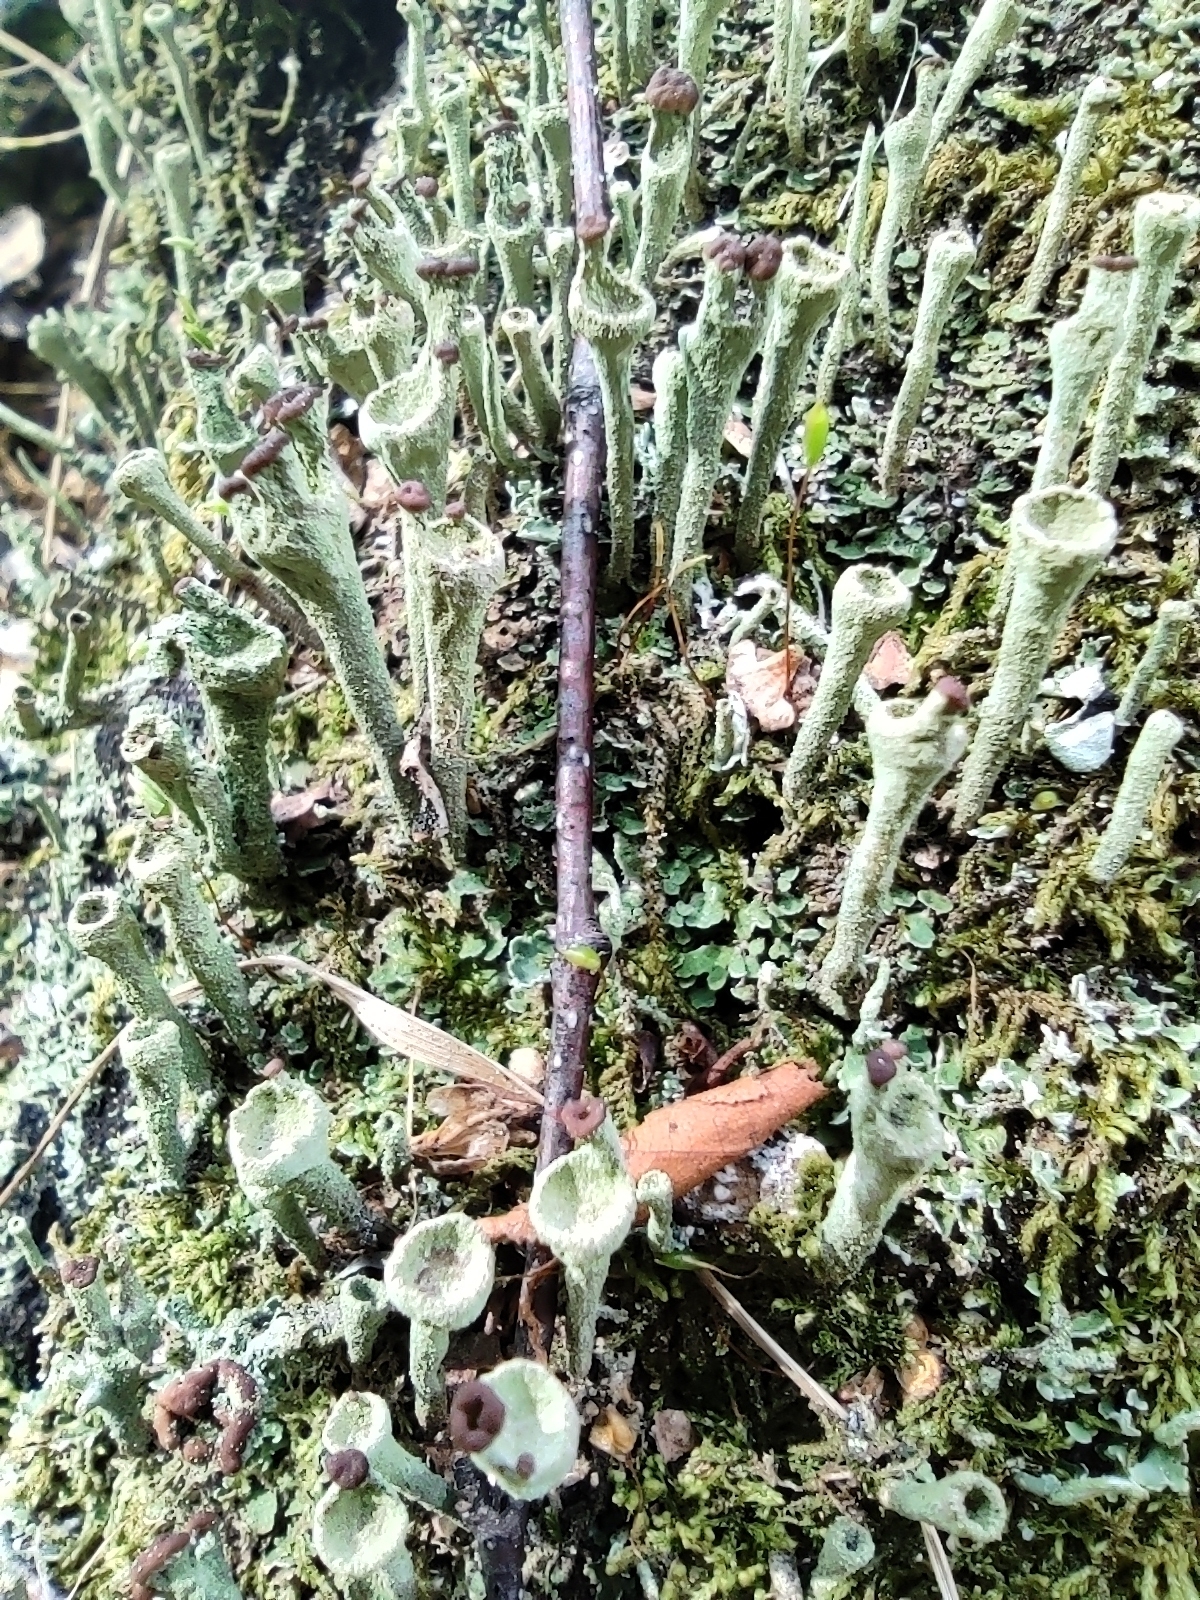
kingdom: Fungi
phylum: Ascomycota
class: Lecanoromycetes
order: Lecanorales
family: Cladoniaceae
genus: Cladonia
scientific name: Cladonia fimbriata
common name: Powdered trumpet lichen
